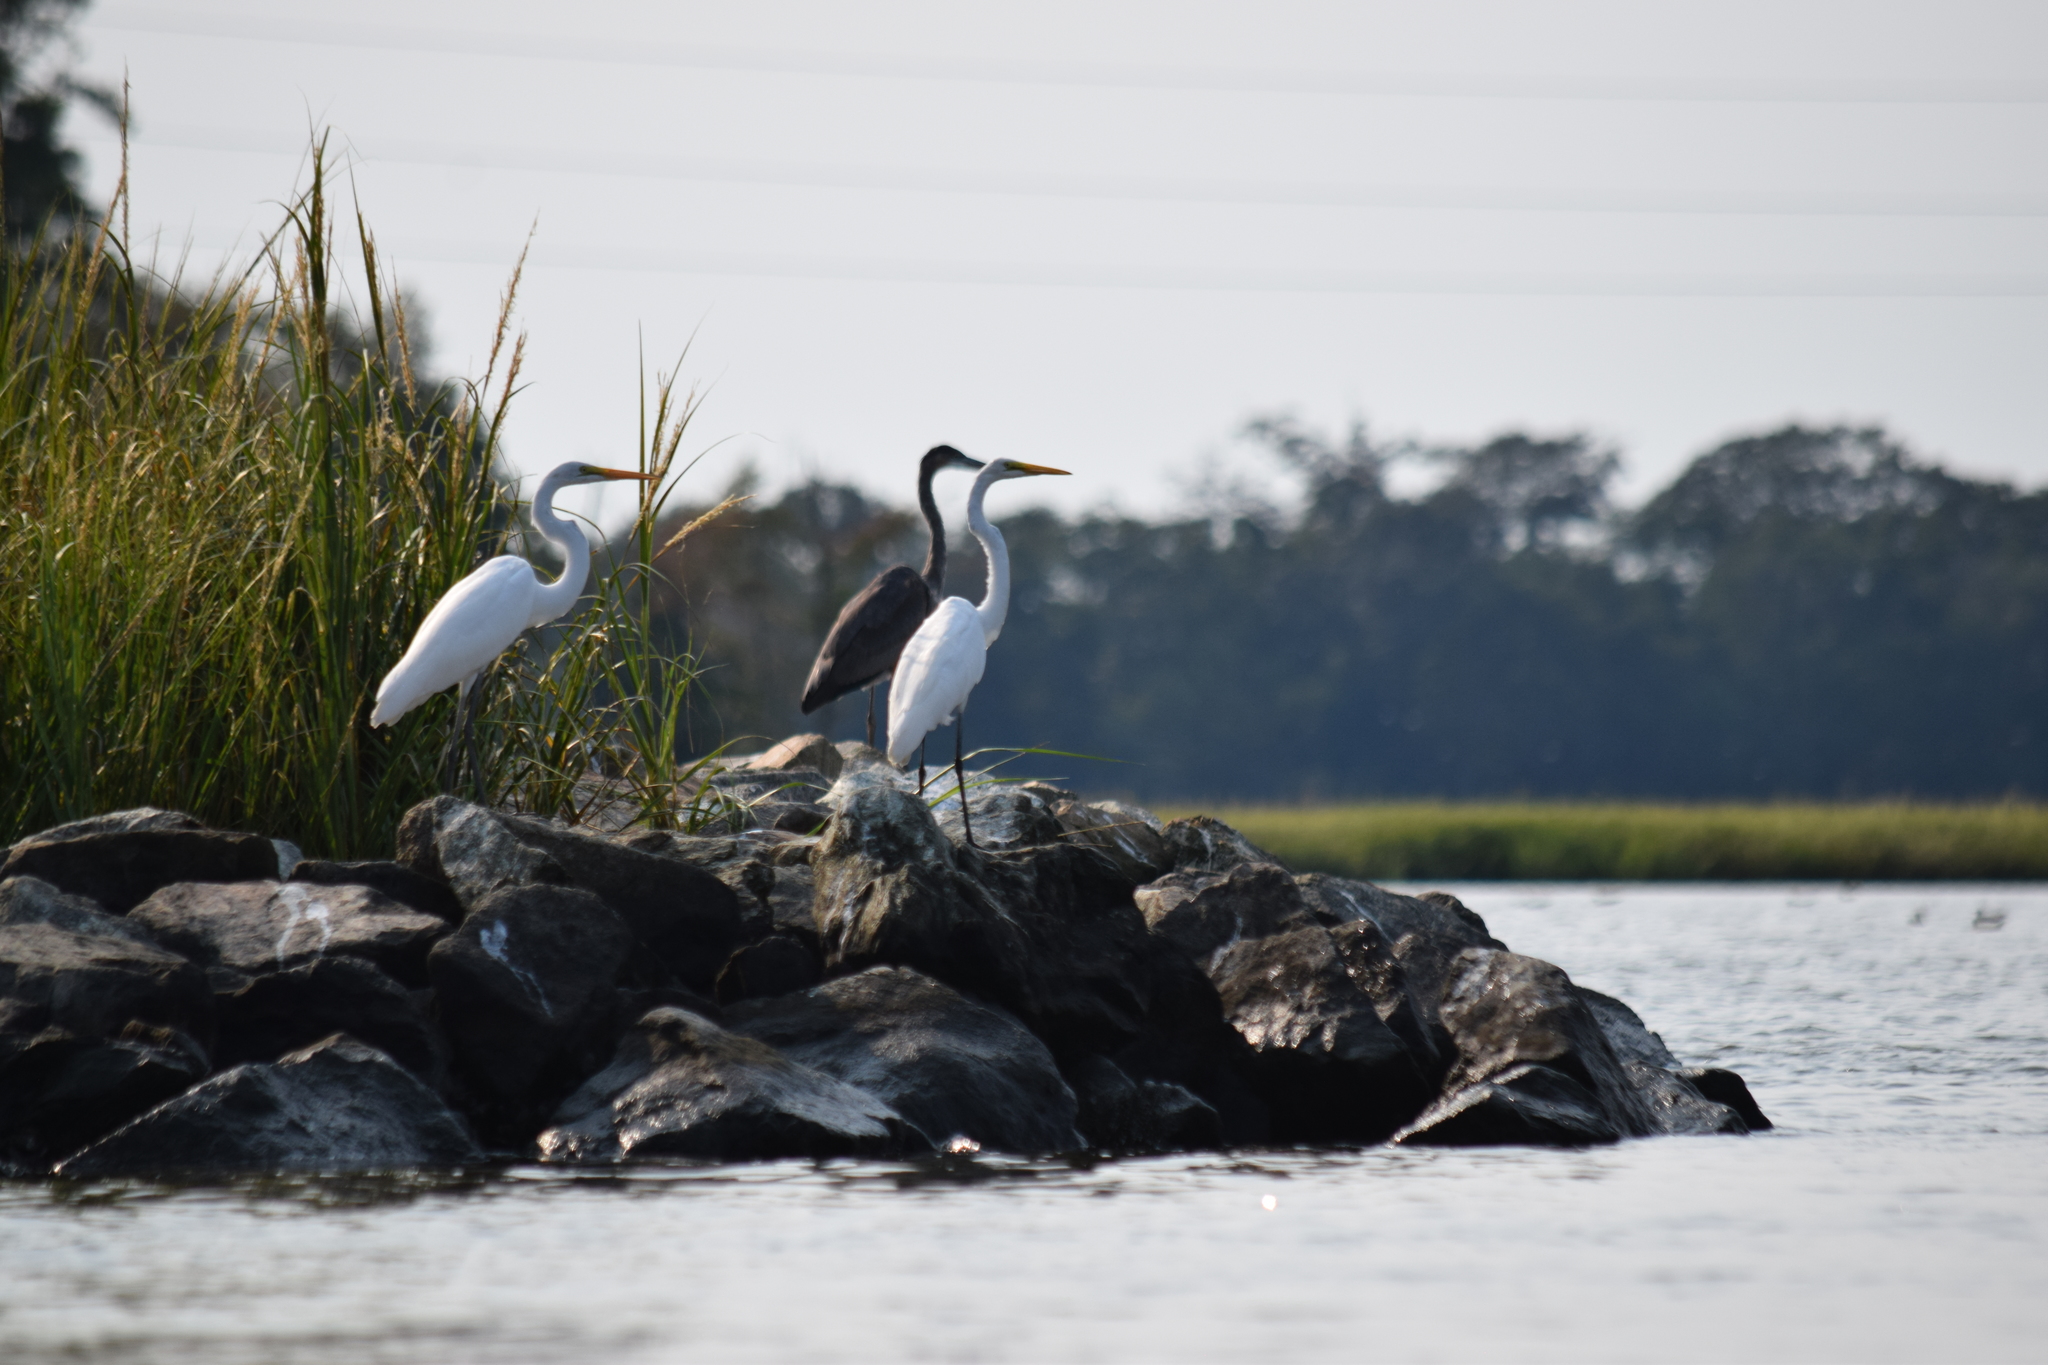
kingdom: Animalia
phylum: Chordata
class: Aves
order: Pelecaniformes
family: Ardeidae
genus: Ardea
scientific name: Ardea alba
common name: Great egret
